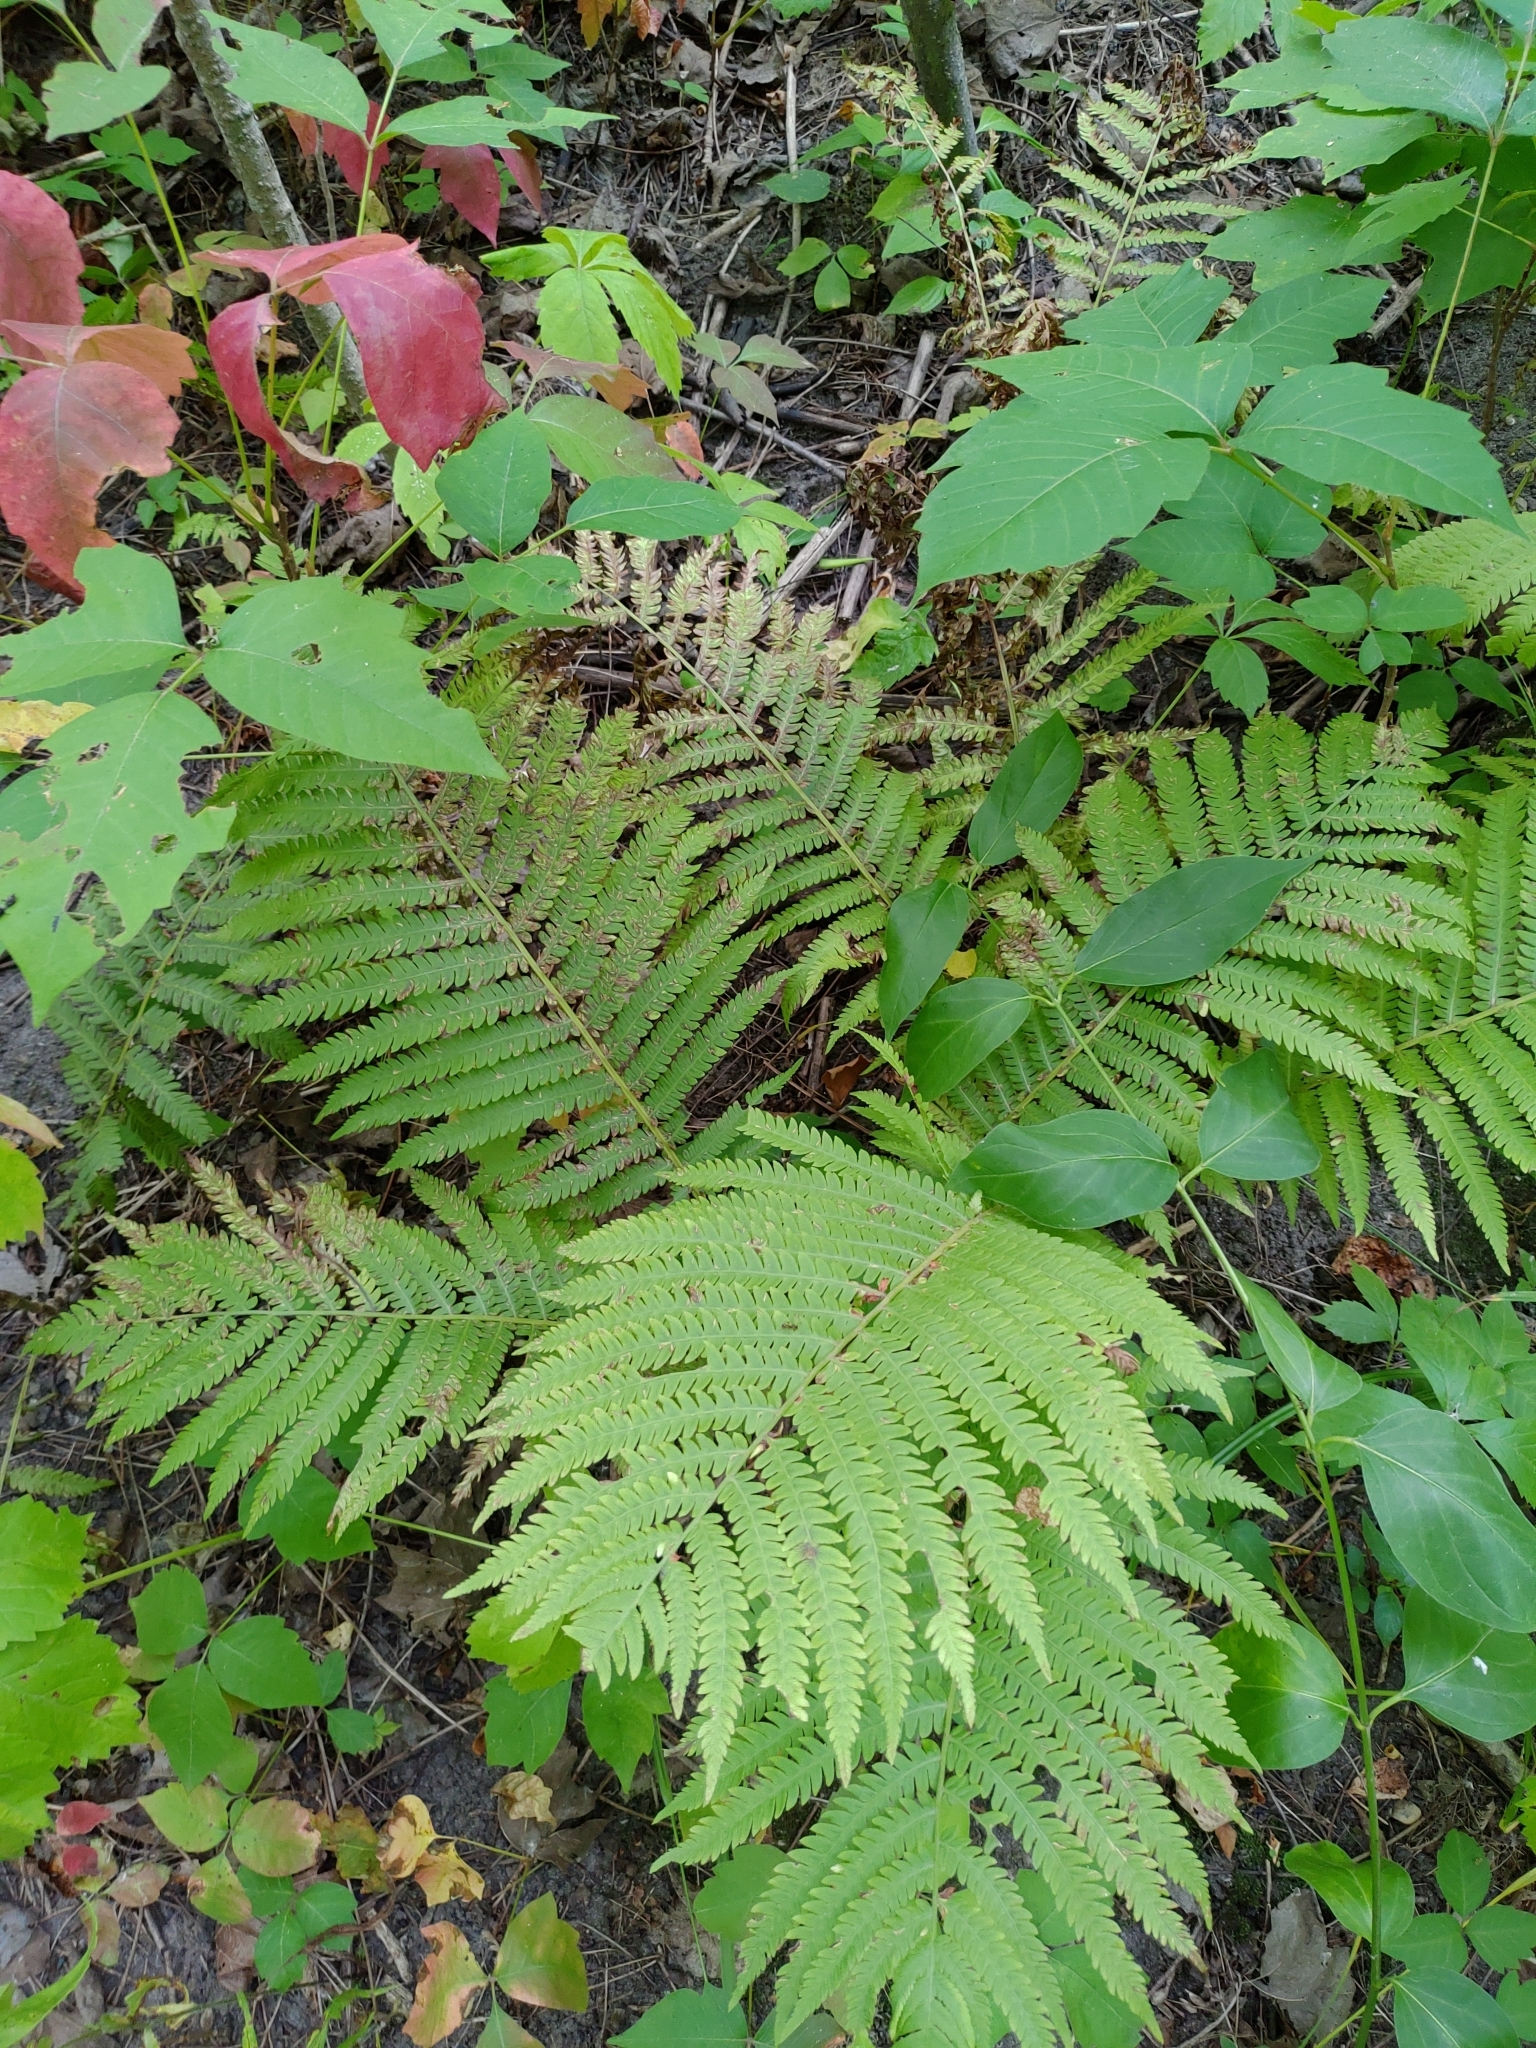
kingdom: Plantae
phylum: Tracheophyta
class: Polypodiopsida
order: Polypodiales
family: Onocleaceae
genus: Matteuccia
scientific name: Matteuccia struthiopteris
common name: Ostrich fern
